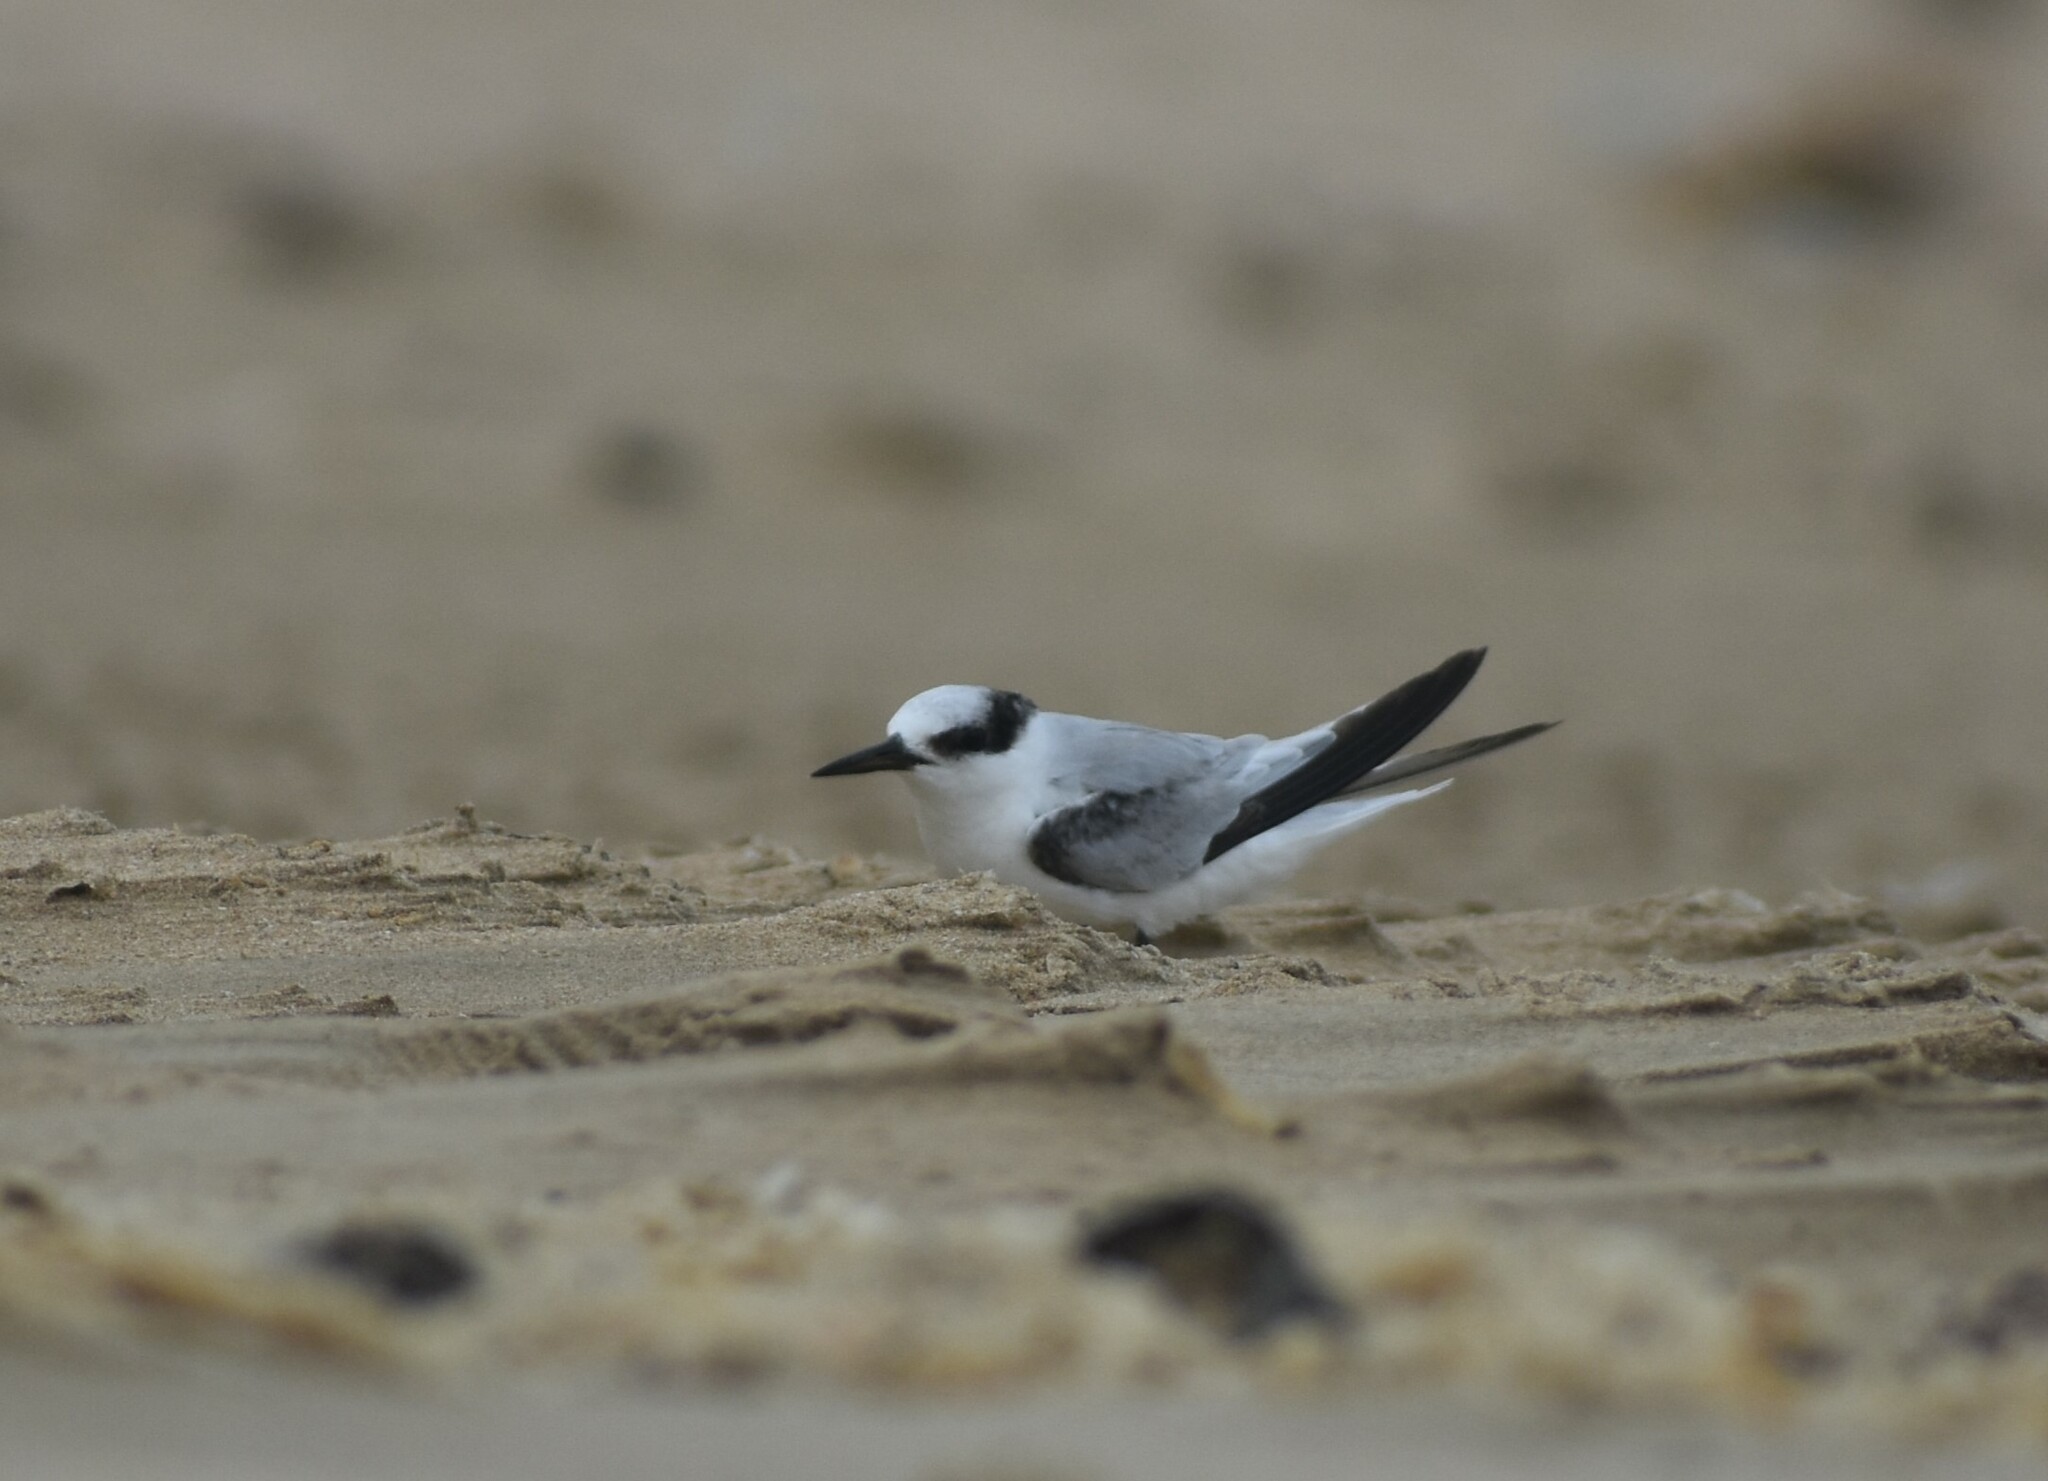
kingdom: Animalia
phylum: Chordata
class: Aves
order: Charadriiformes
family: Laridae
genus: Sternula
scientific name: Sternula albifrons
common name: Little tern
